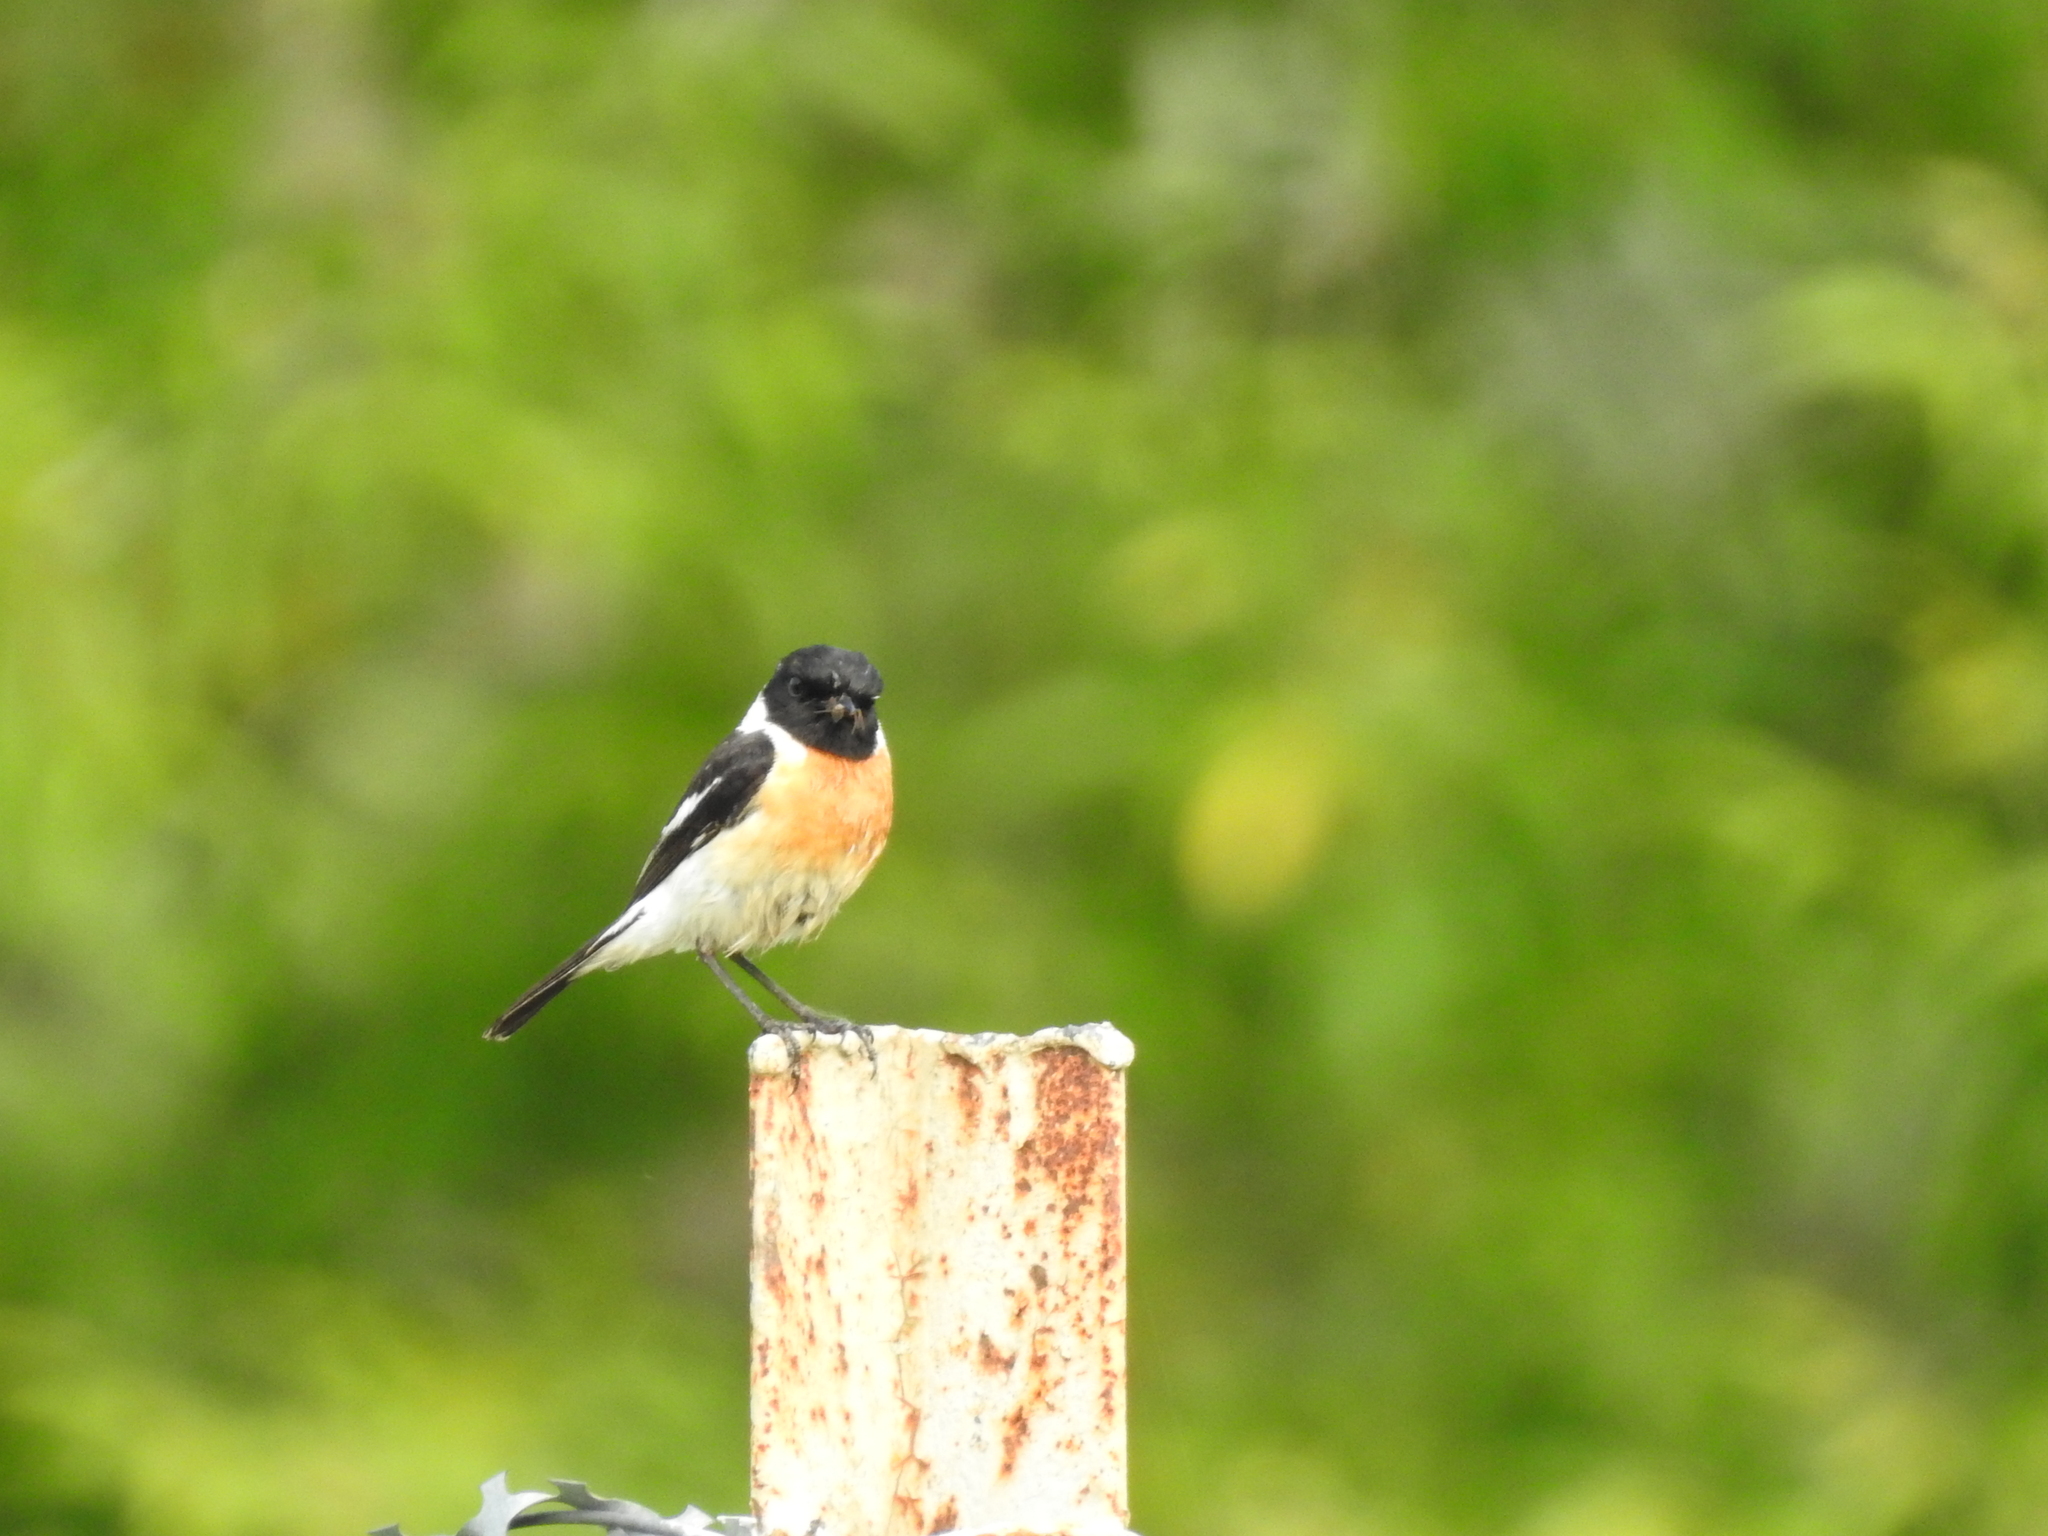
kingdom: Animalia
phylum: Chordata
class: Aves
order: Passeriformes
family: Muscicapidae
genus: Saxicola
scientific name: Saxicola maurus
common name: Siberian stonechat
